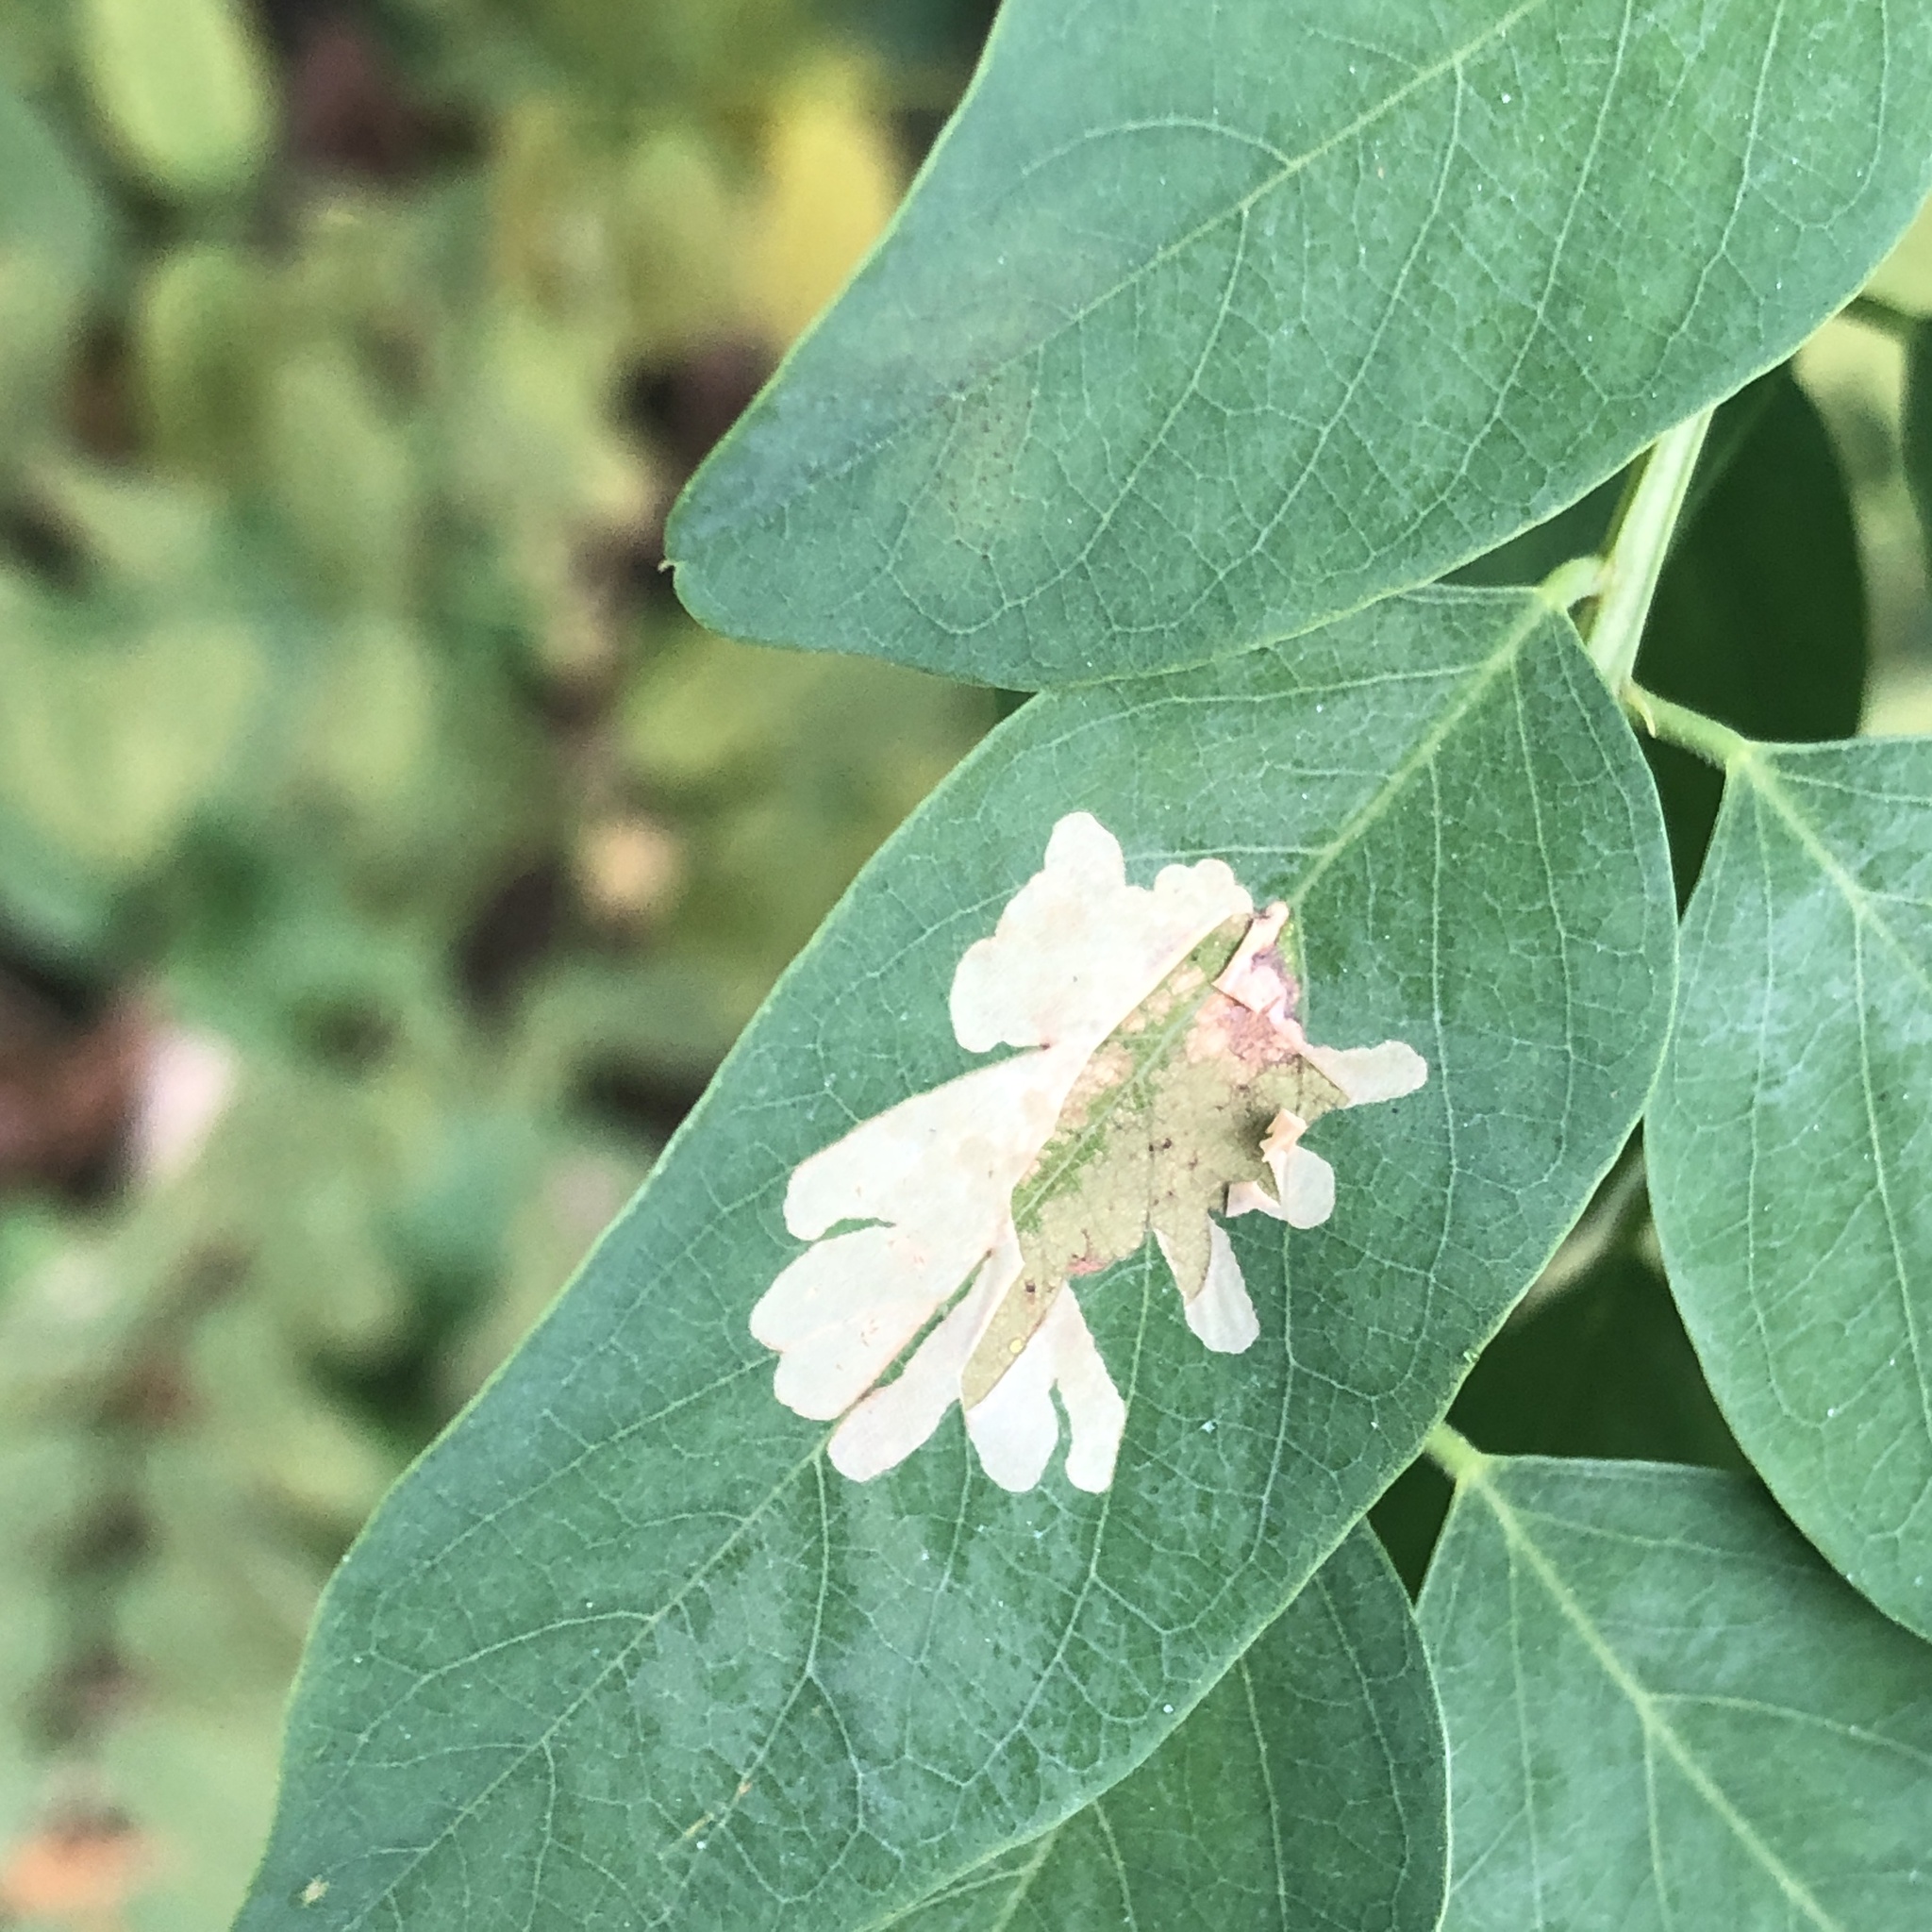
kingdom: Animalia
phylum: Arthropoda
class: Insecta
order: Lepidoptera
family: Gracillariidae
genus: Parectopa
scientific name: Parectopa robiniella
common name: Locust digitate leafminer
